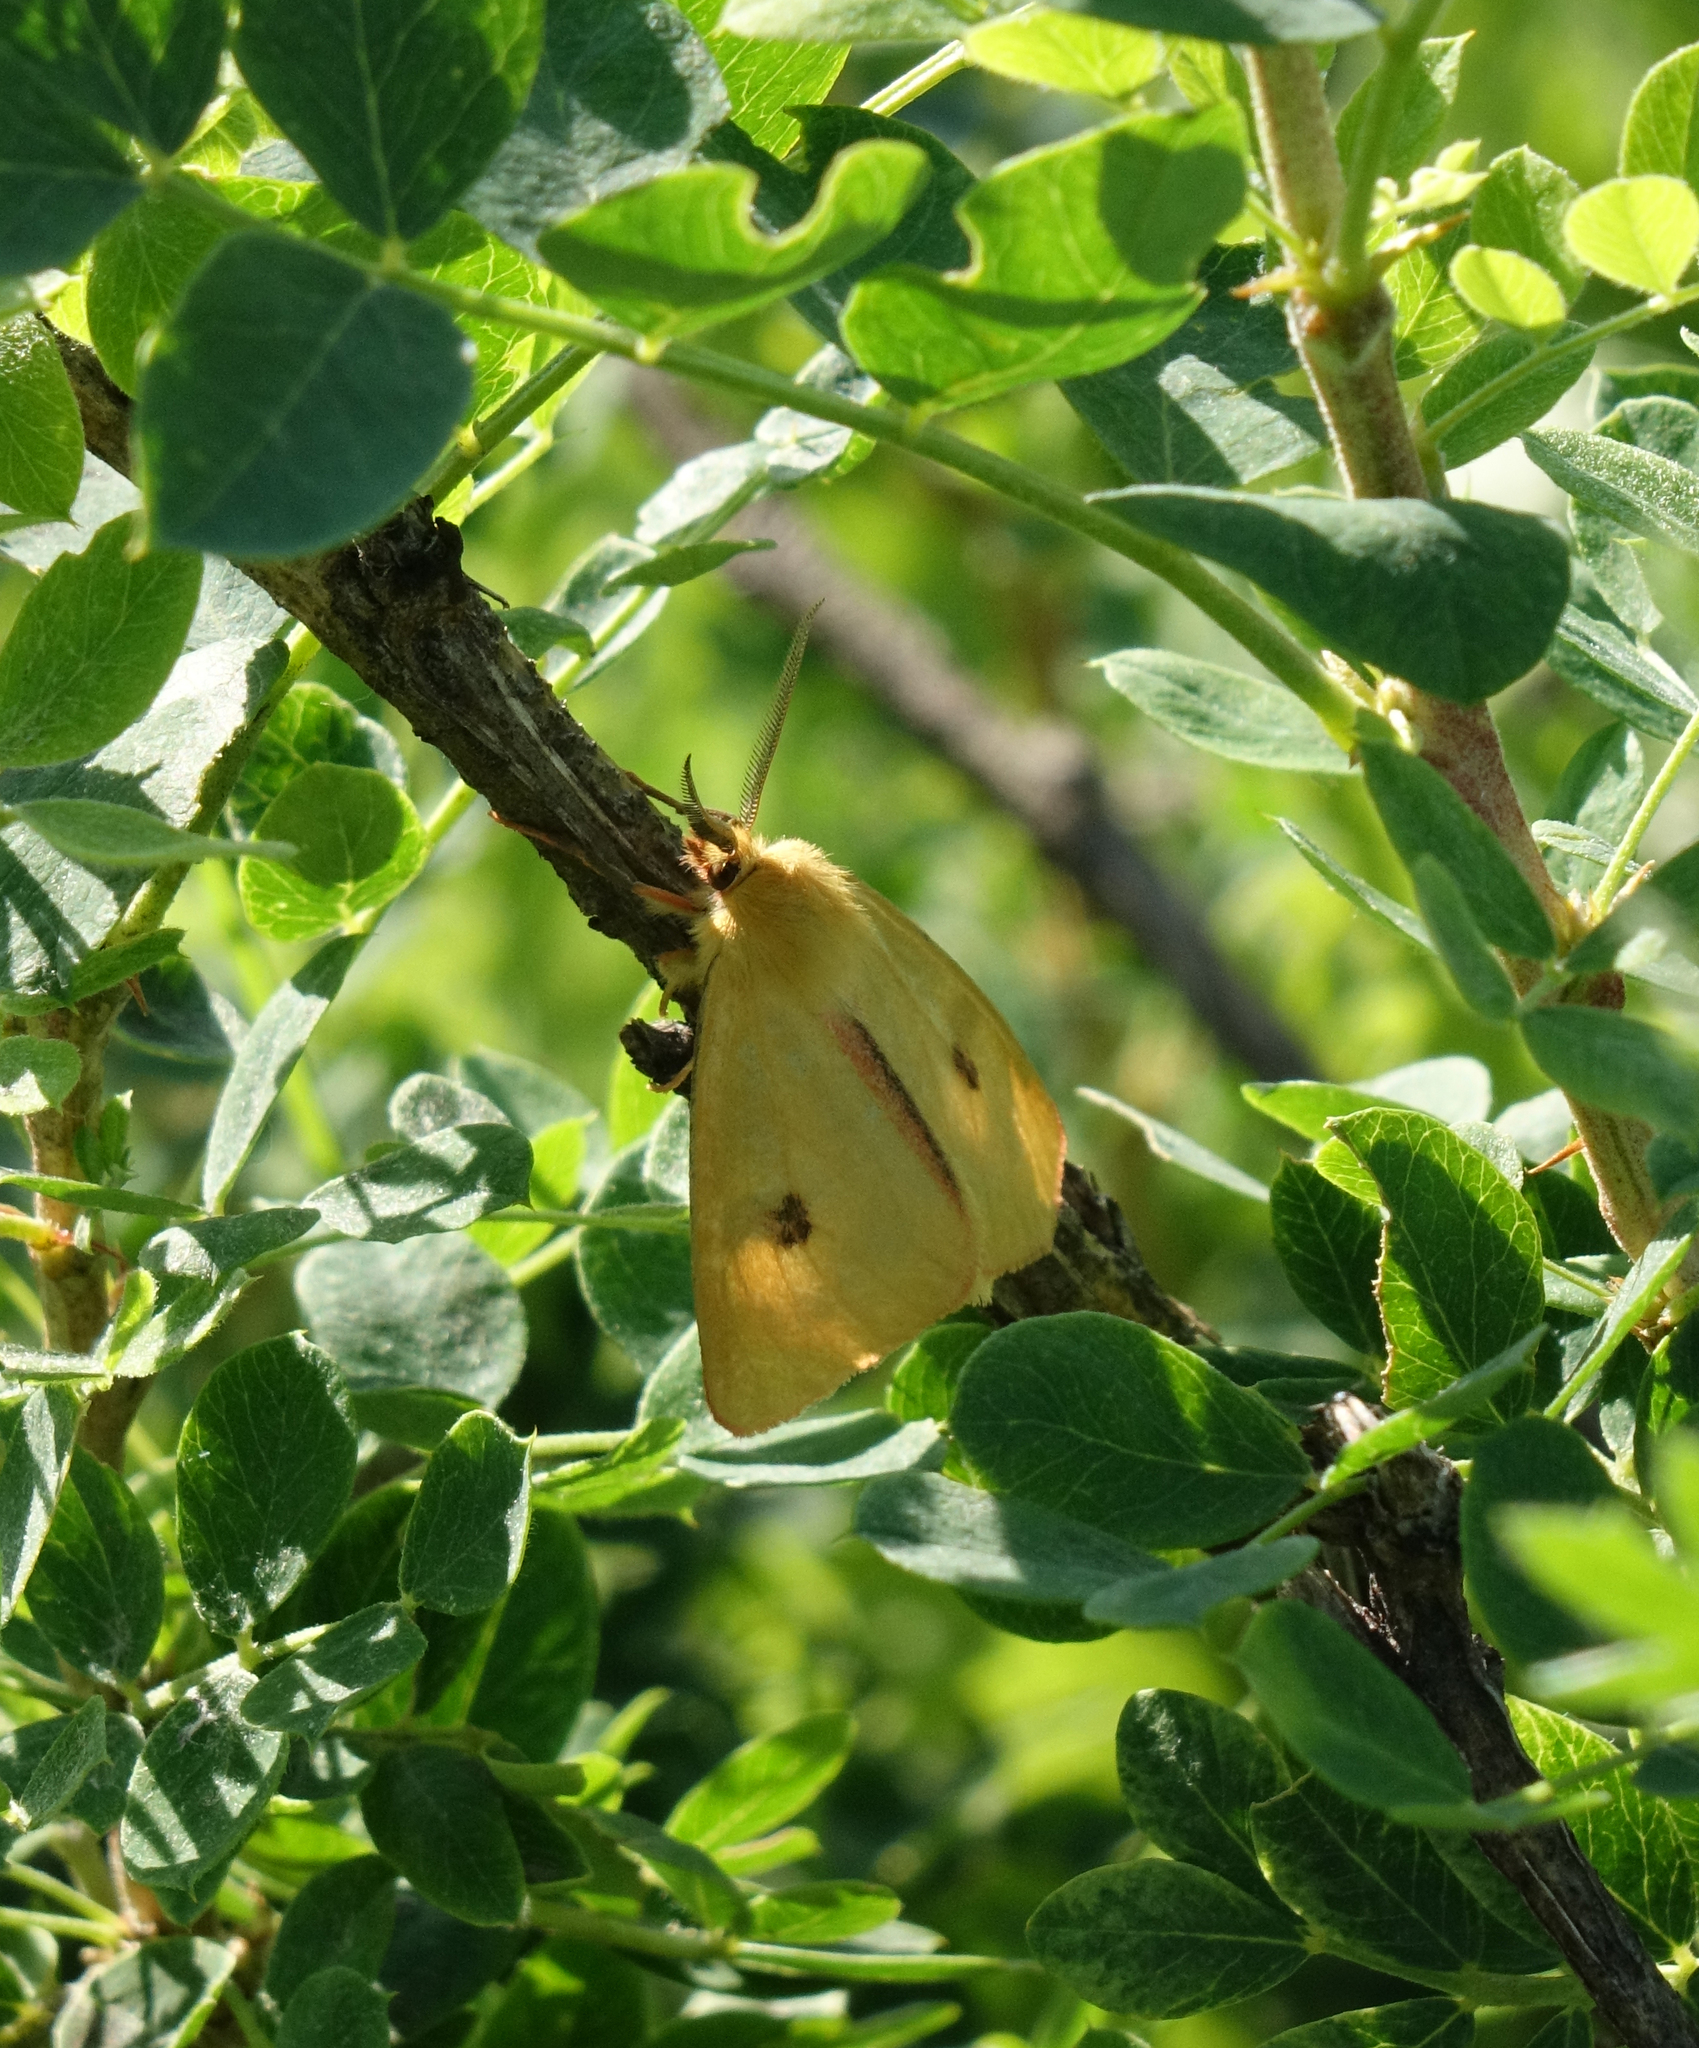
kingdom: Animalia
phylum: Arthropoda
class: Insecta
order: Lepidoptera
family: Erebidae
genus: Diacrisia
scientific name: Diacrisia sannio
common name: Clouded buff
